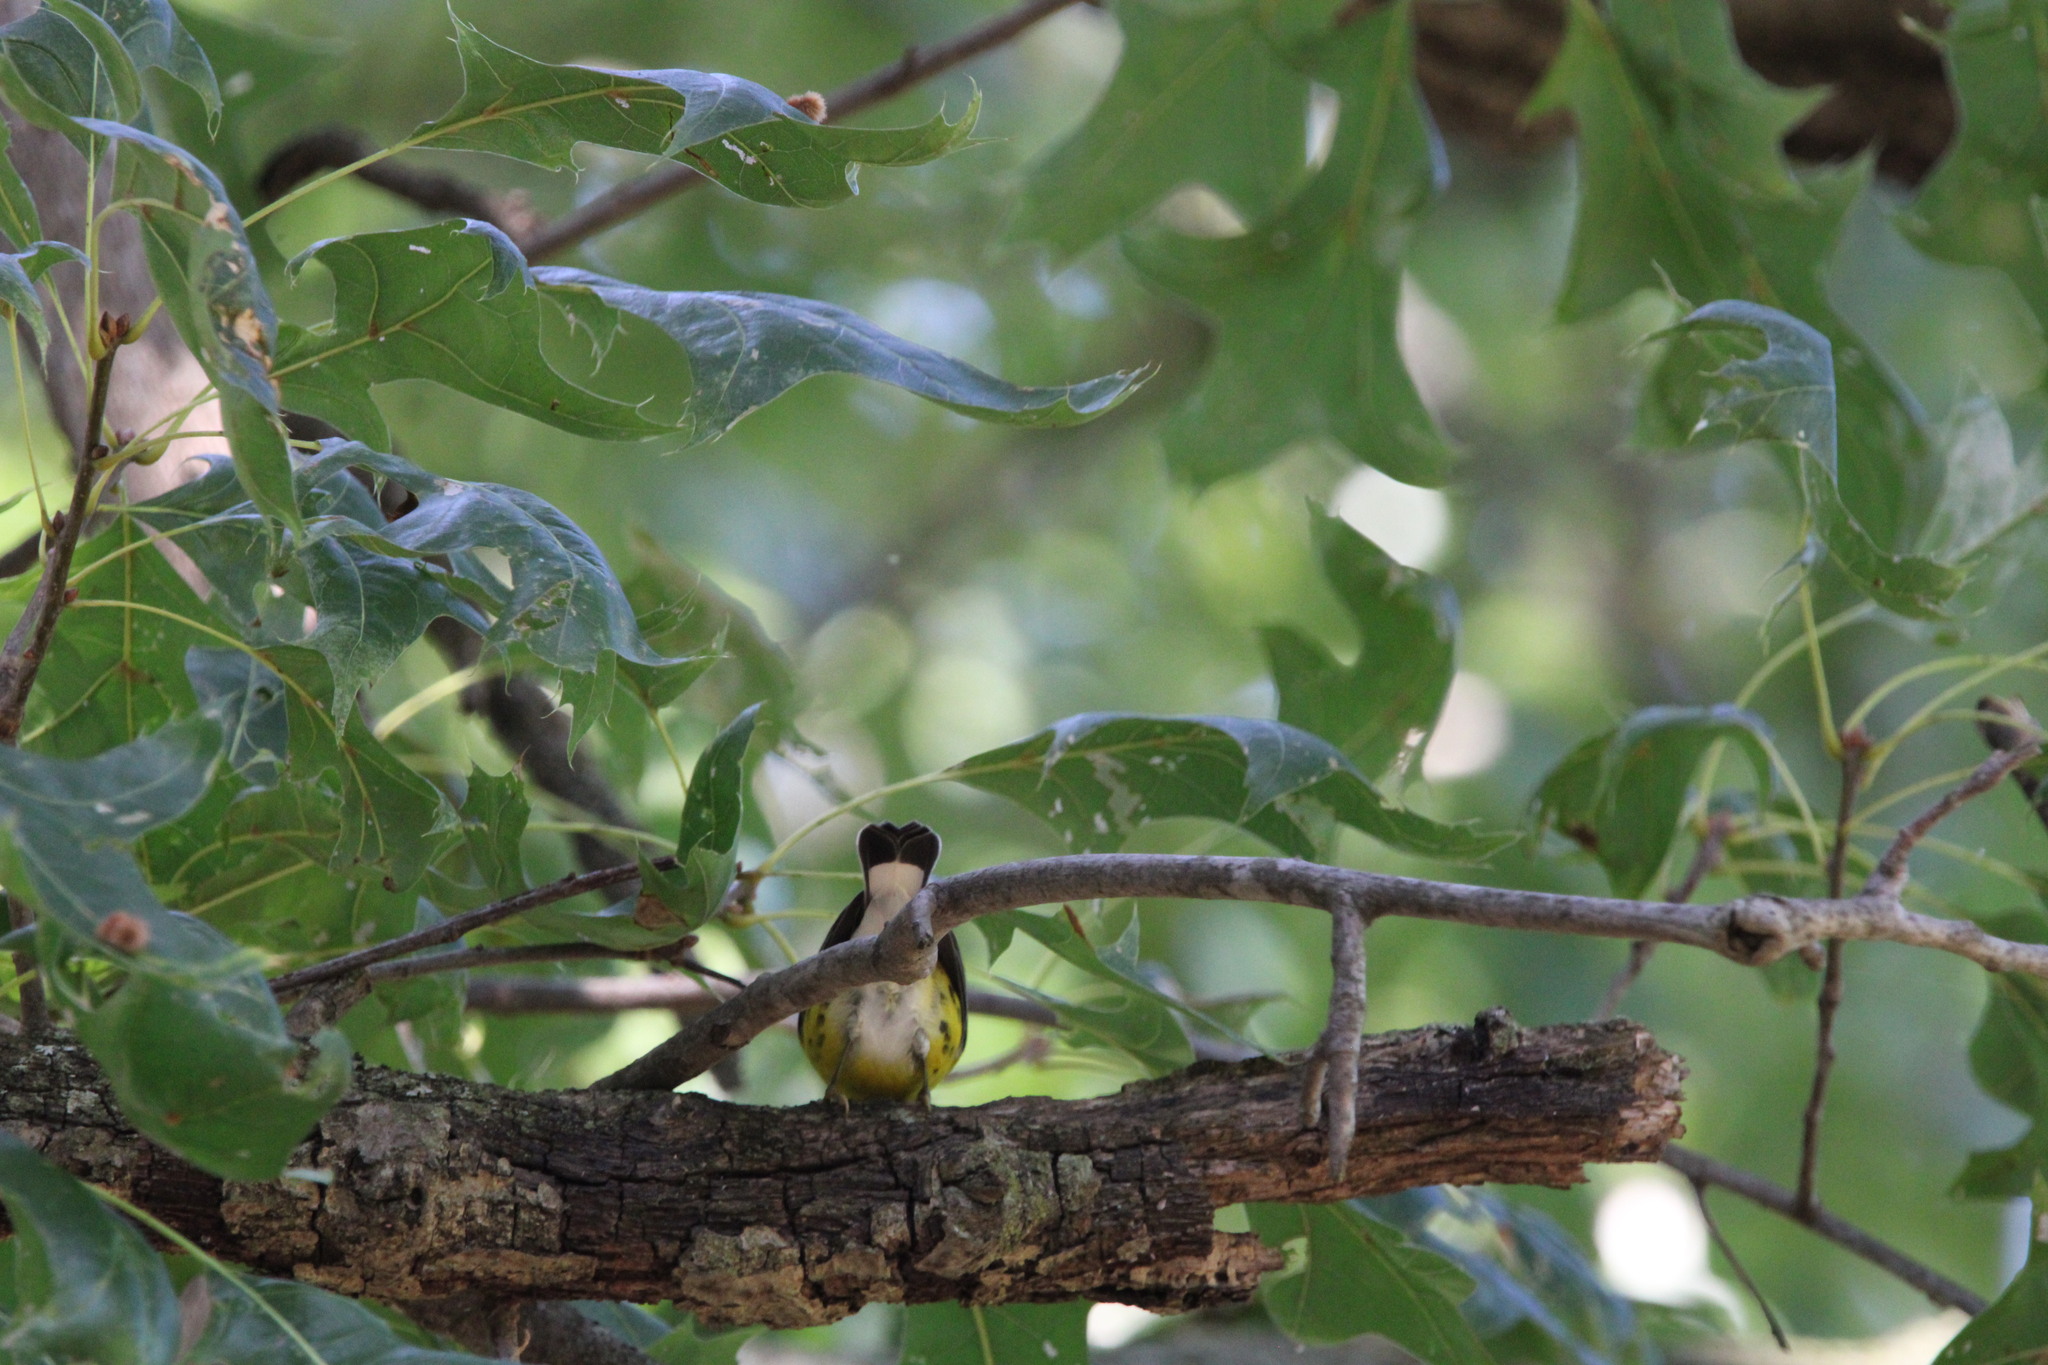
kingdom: Animalia
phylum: Chordata
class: Aves
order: Passeriformes
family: Parulidae
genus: Setophaga
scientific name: Setophaga magnolia
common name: Magnolia warbler
